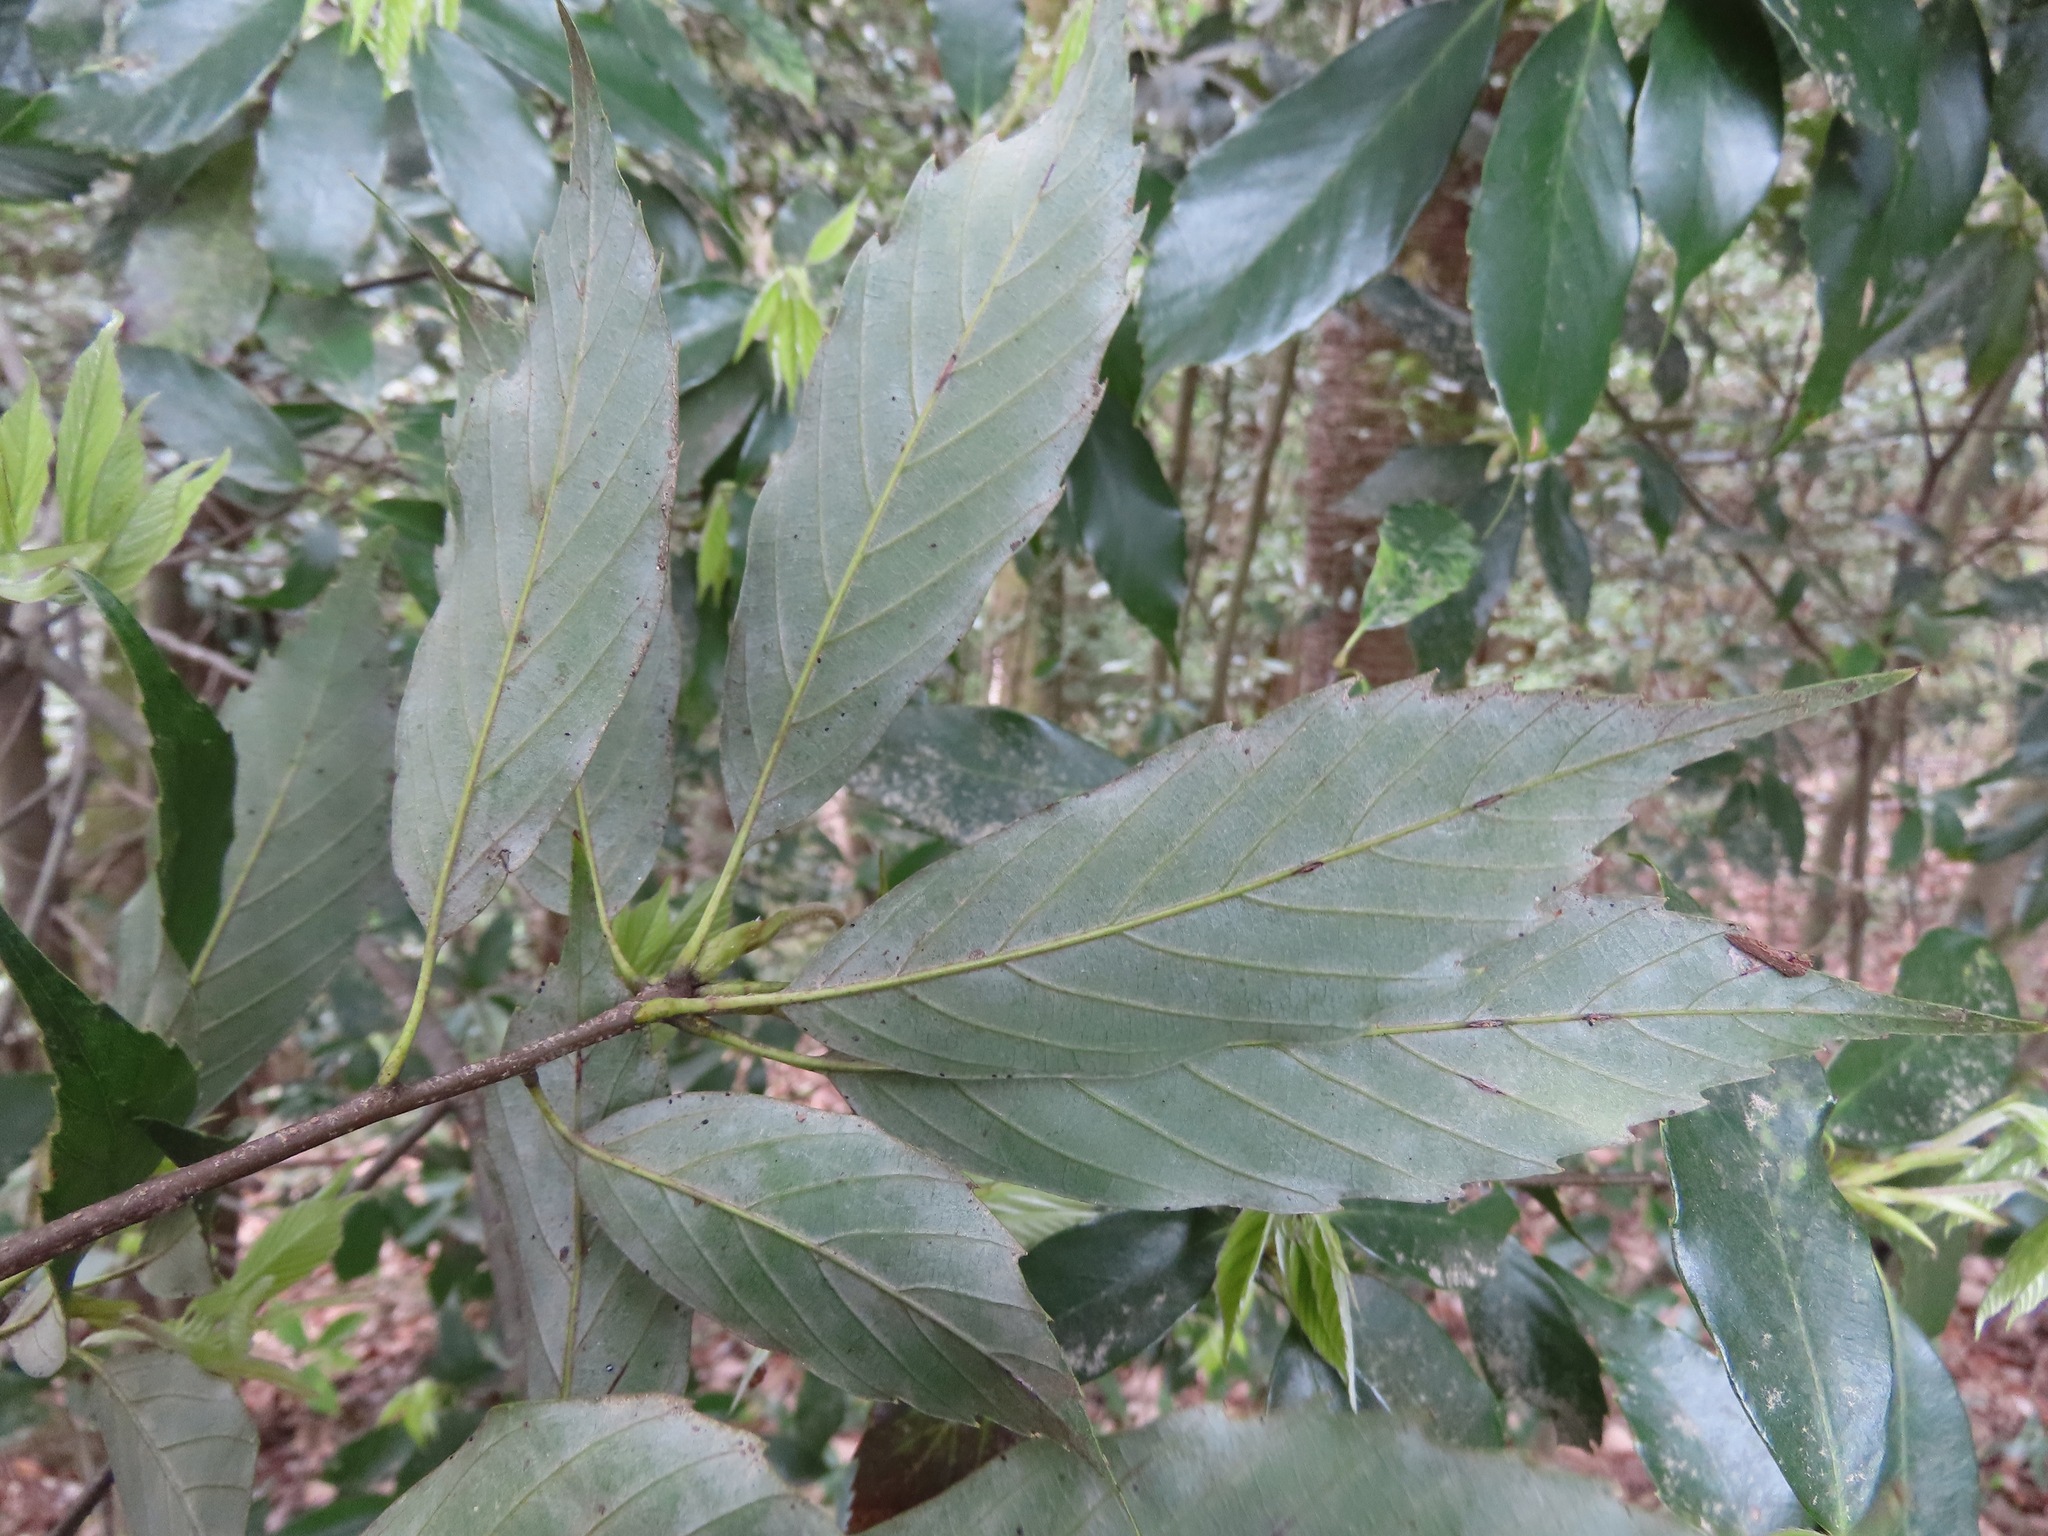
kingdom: Plantae
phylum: Tracheophyta
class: Magnoliopsida
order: Fagales
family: Fagaceae
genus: Quercus
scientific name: Quercus glauca
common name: Ring-cup oak
